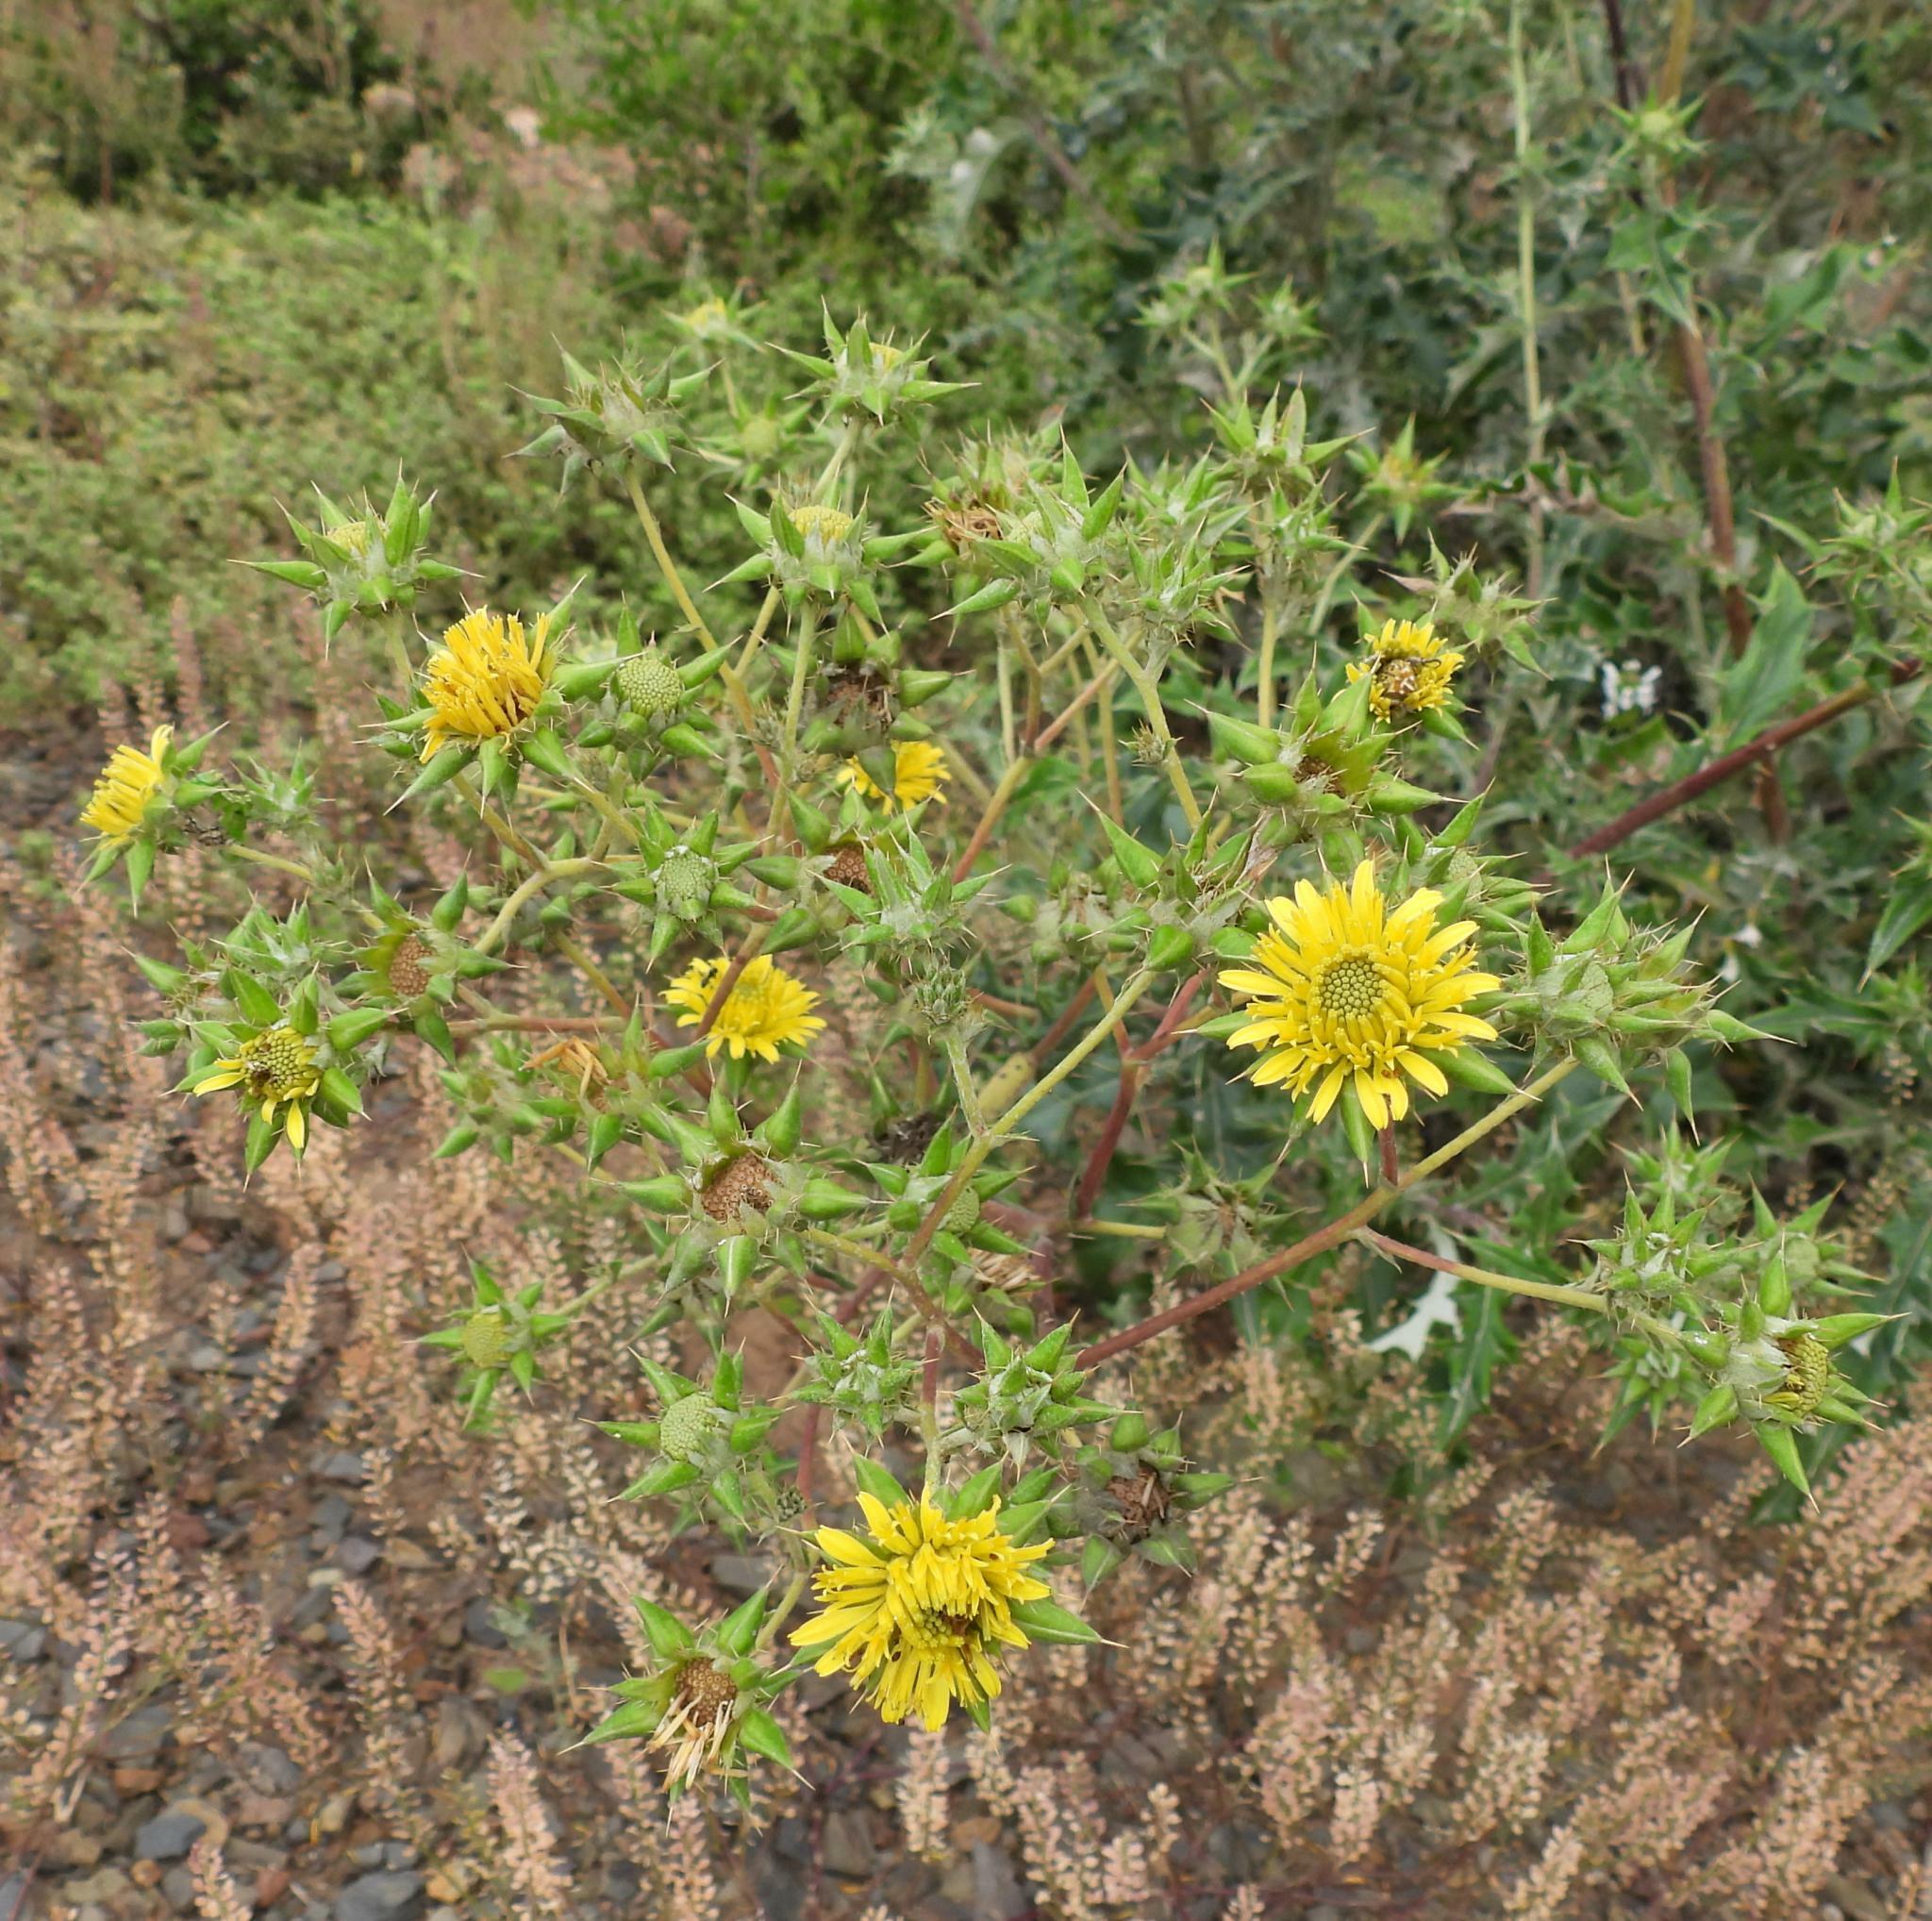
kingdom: Plantae
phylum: Tracheophyta
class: Magnoliopsida
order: Asterales
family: Asteraceae
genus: Berkheya
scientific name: Berkheya heterophylla
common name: Prickly gousblom
